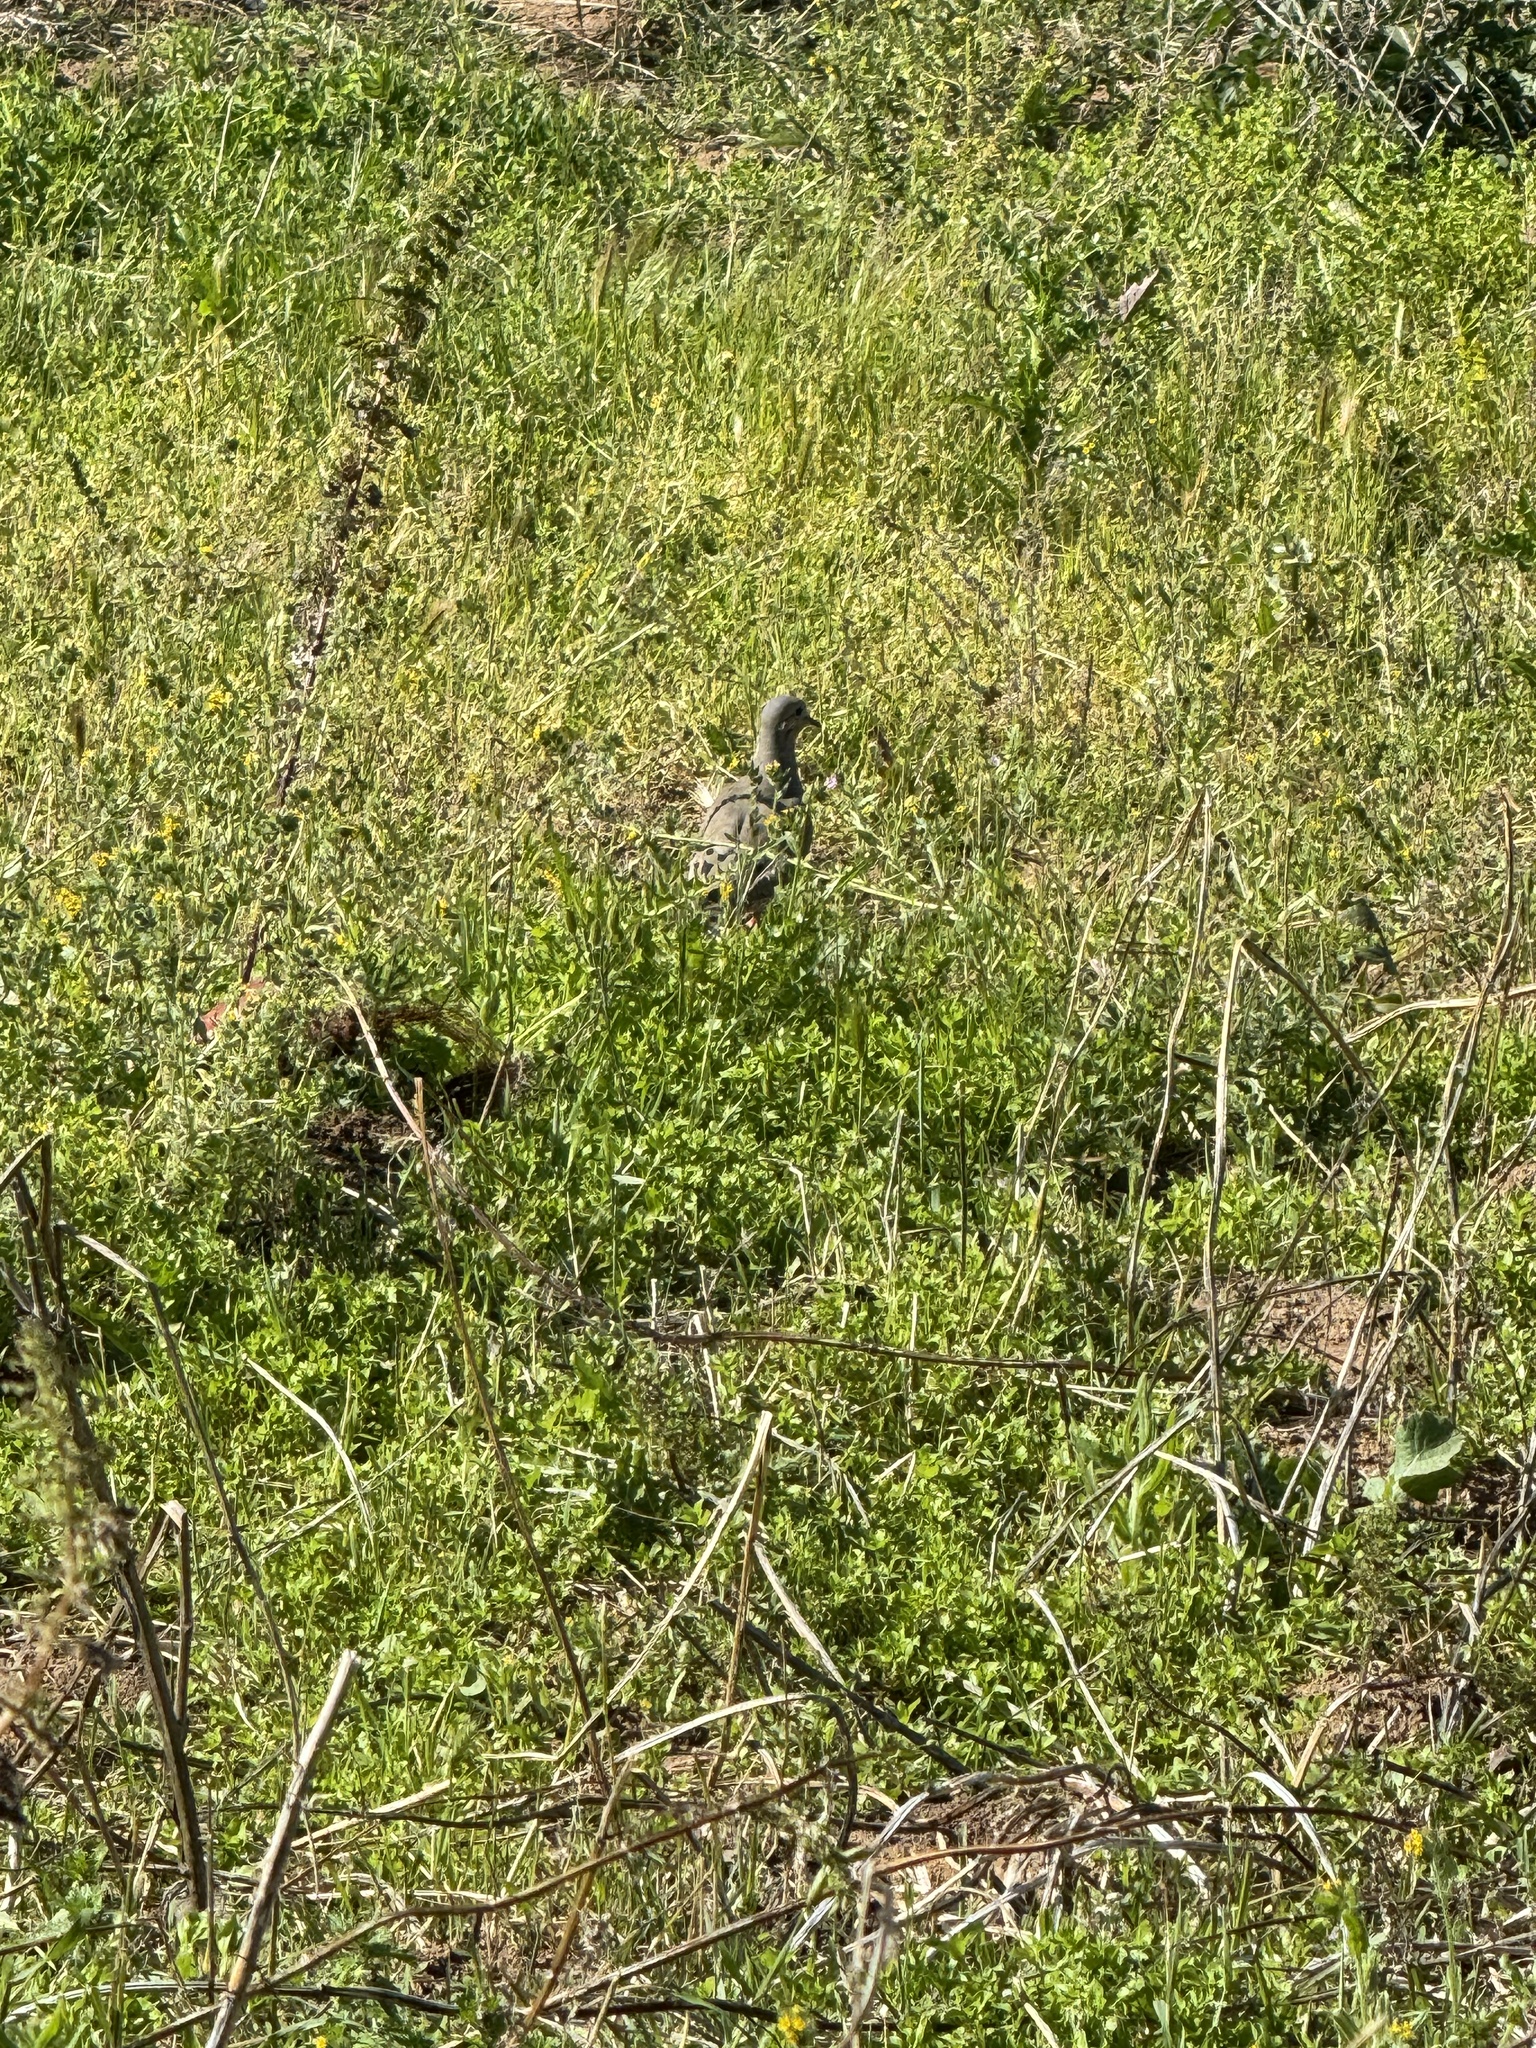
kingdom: Animalia
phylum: Chordata
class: Aves
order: Columbiformes
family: Columbidae
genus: Zenaida
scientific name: Zenaida macroura
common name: Mourning dove
